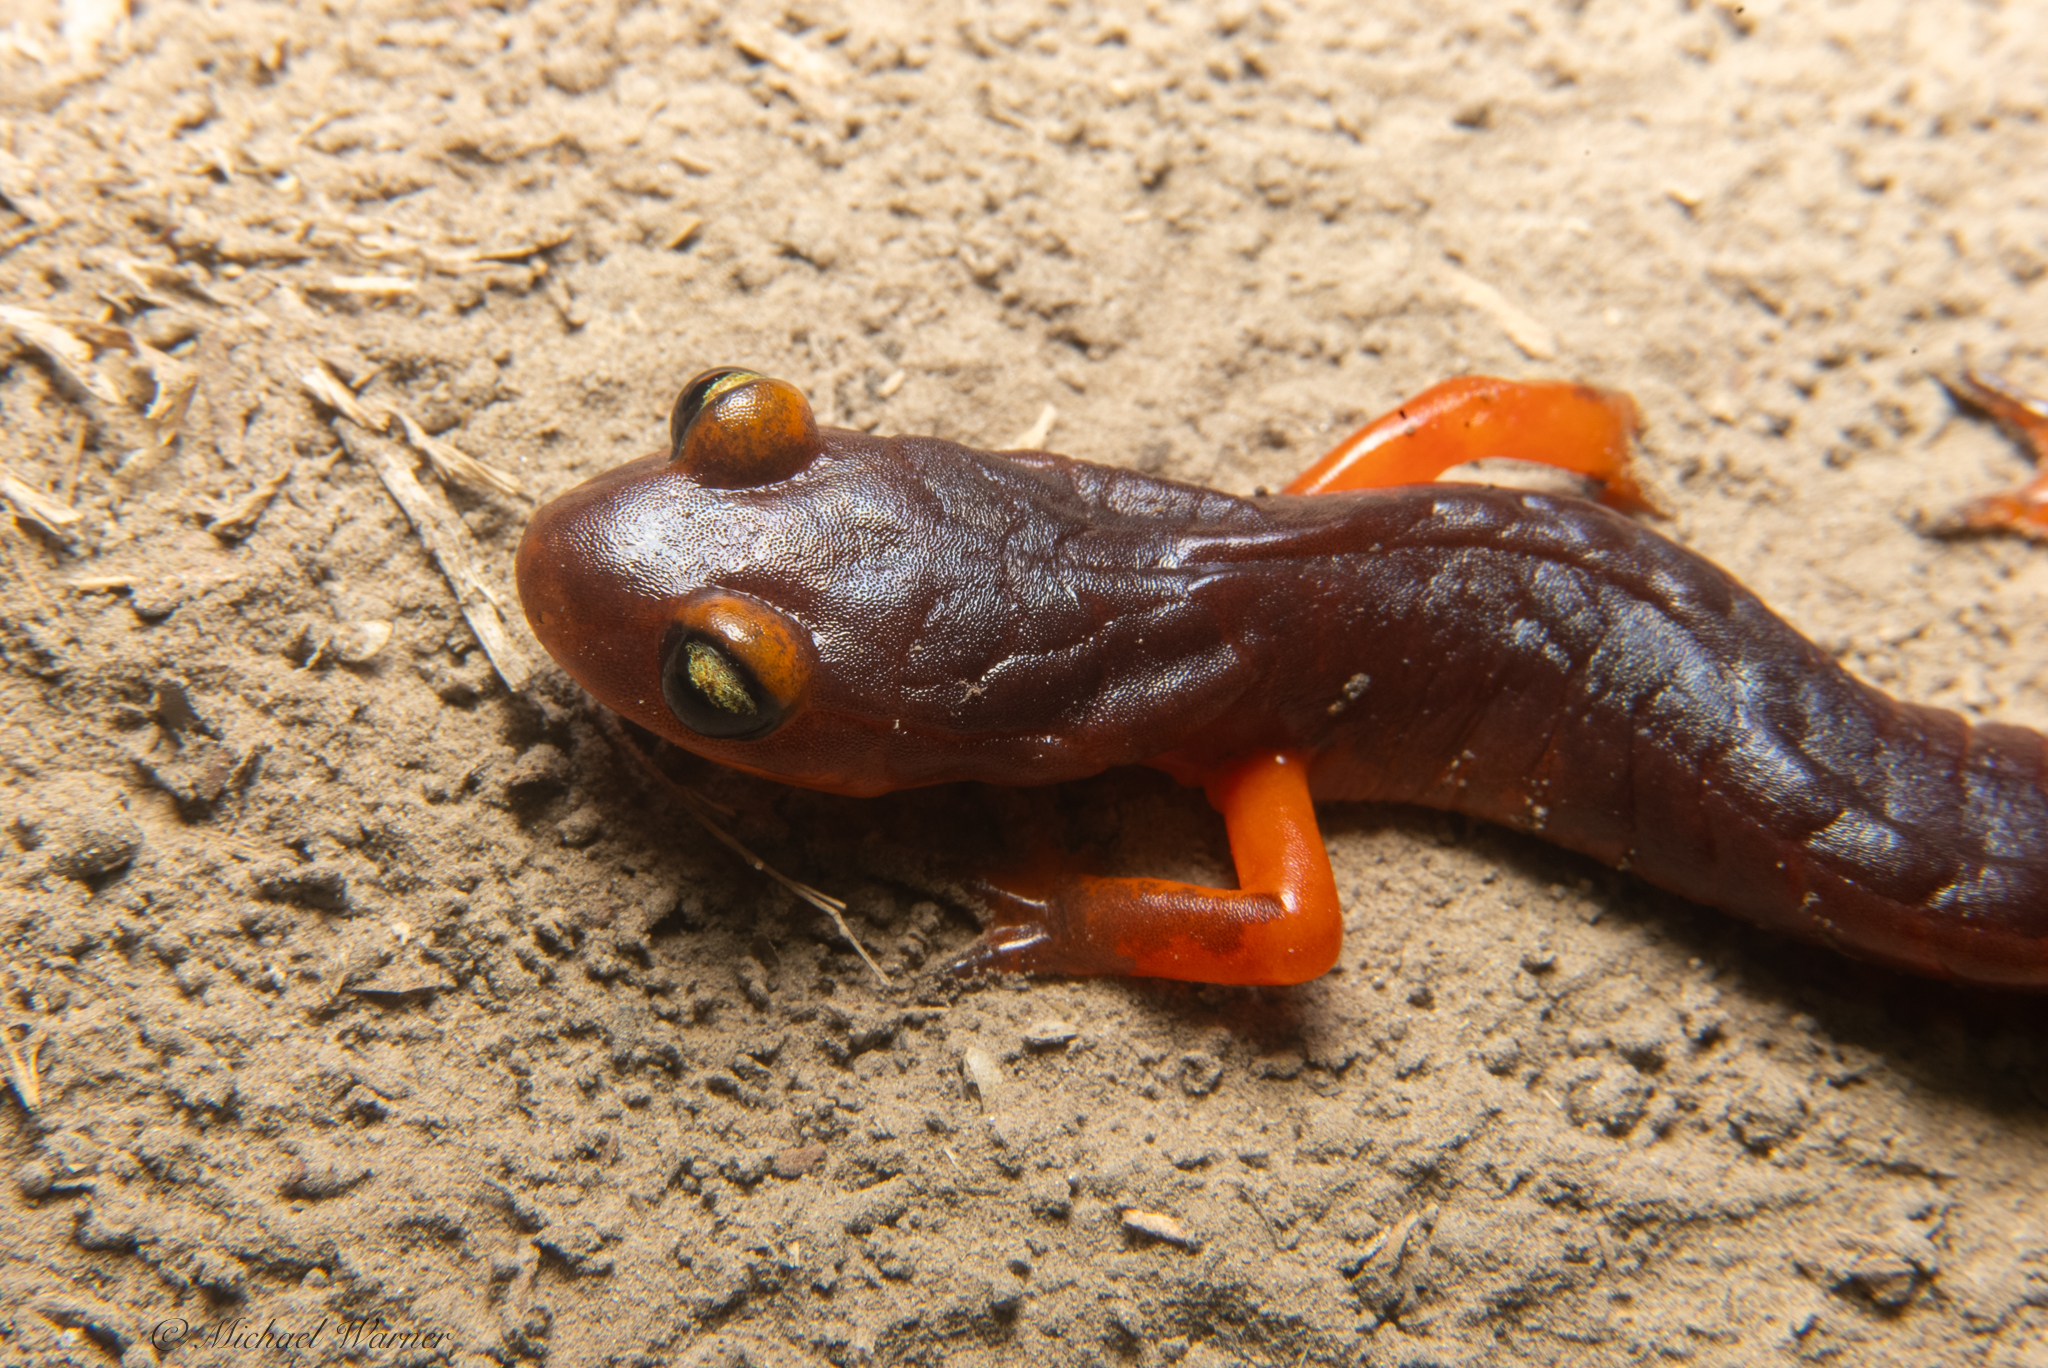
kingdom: Animalia
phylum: Chordata
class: Amphibia
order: Caudata
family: Plethodontidae
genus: Ensatina
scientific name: Ensatina eschscholtzii
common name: Ensatina
